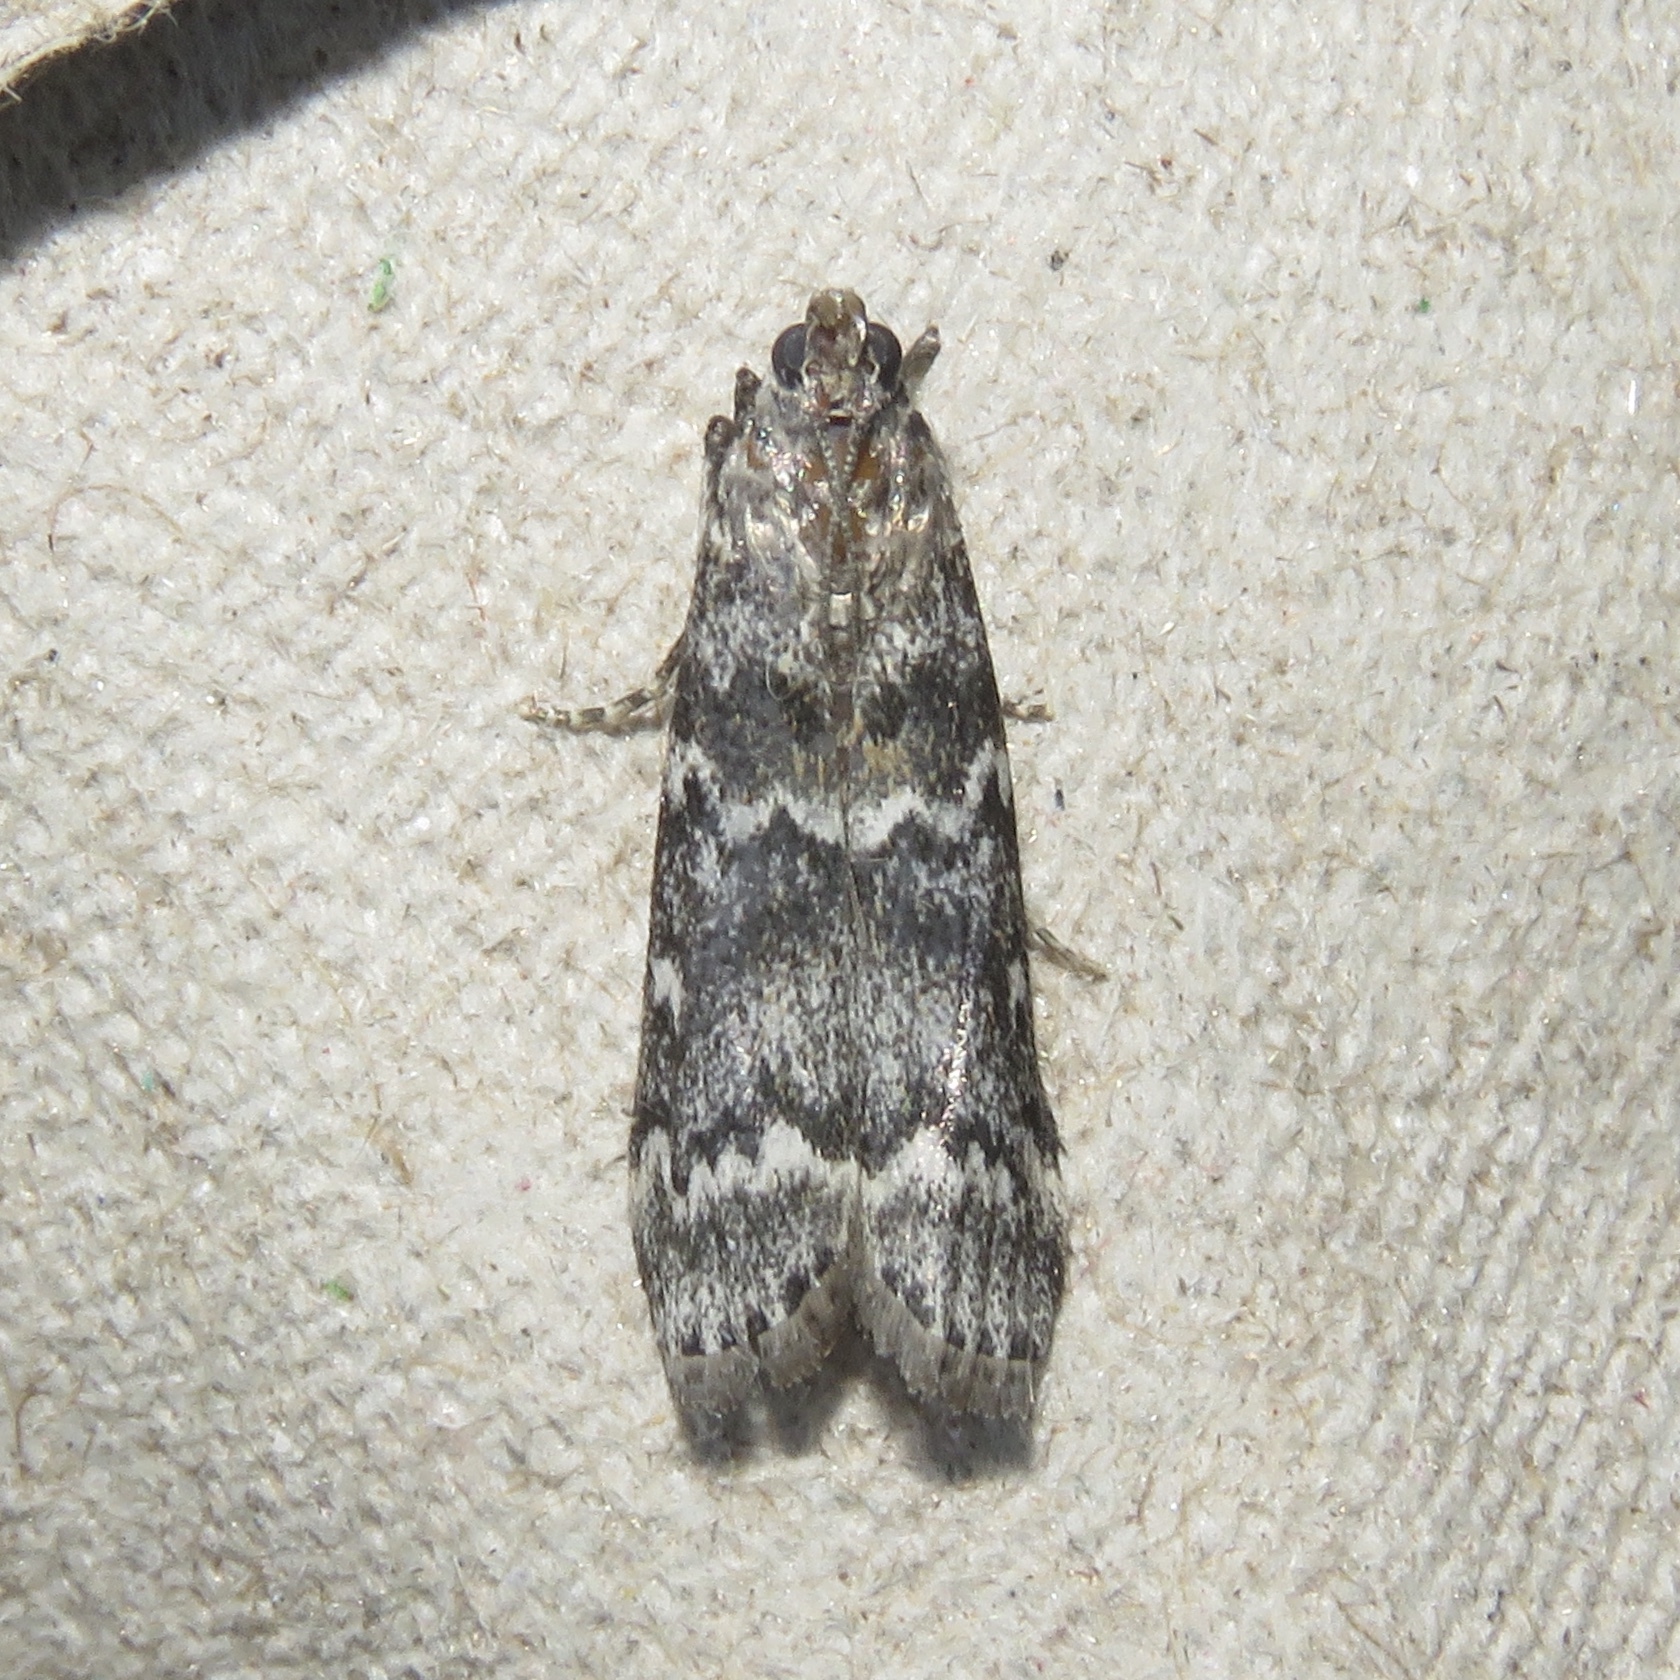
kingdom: Animalia
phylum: Arthropoda
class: Insecta
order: Lepidoptera
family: Pyralidae
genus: Dioryctria
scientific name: Dioryctria abietivorella
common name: Evergreen coneworm moth
